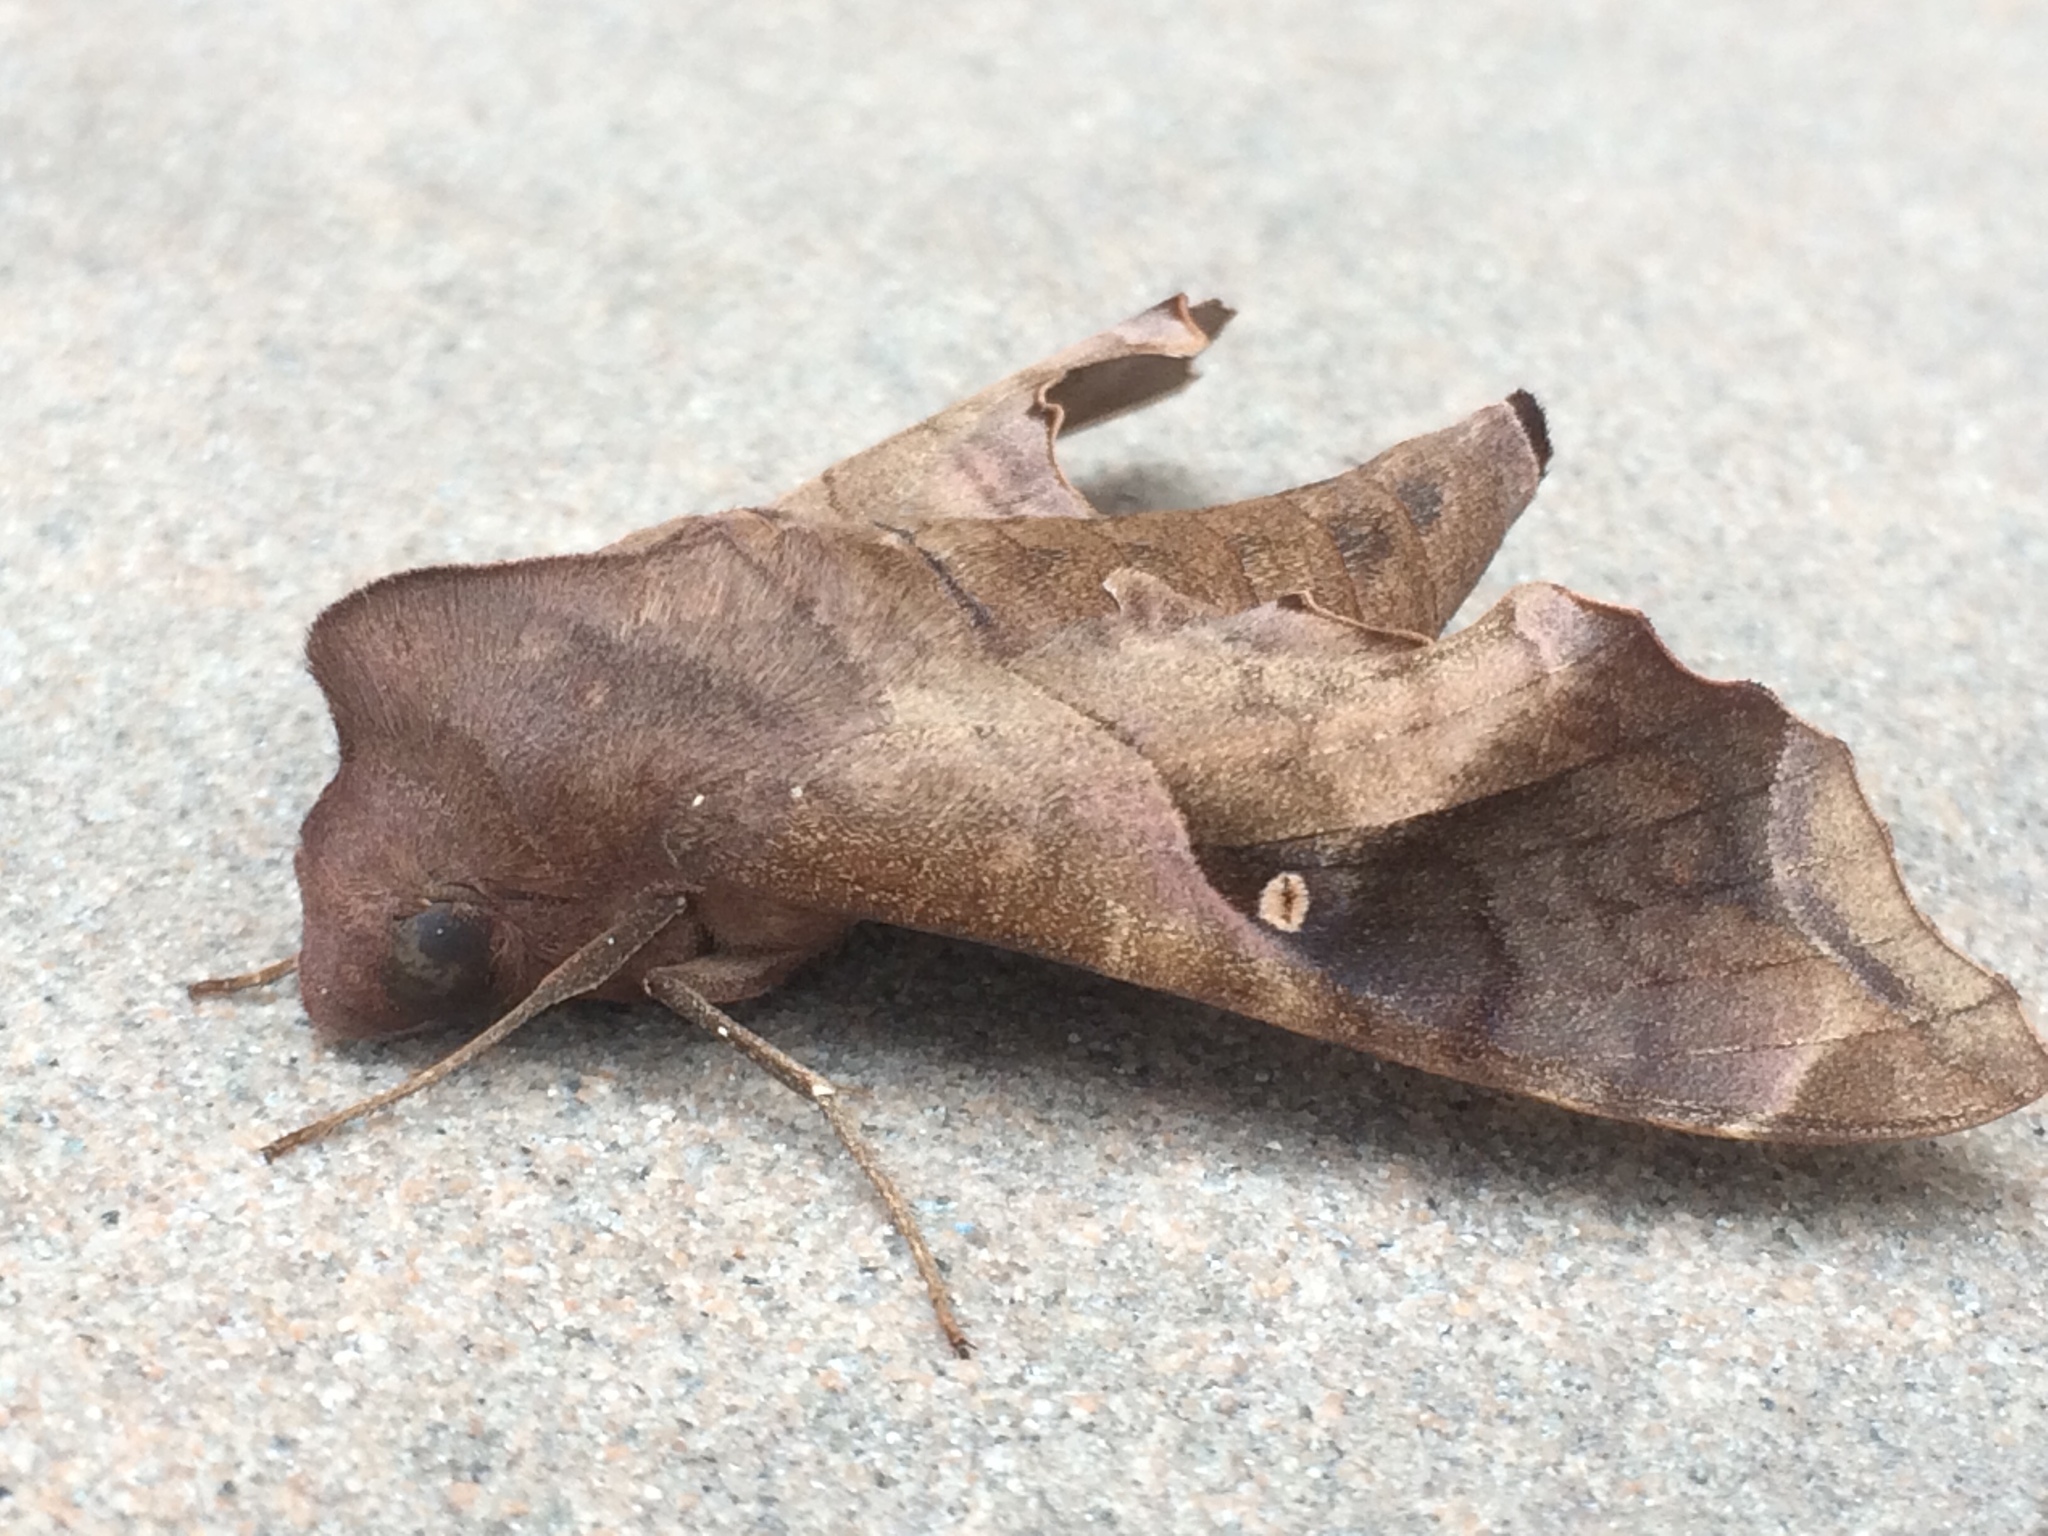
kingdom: Animalia
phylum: Arthropoda
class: Insecta
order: Lepidoptera
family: Sphingidae
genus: Enyo
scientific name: Enyo lugubris
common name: Mournful sphinx
